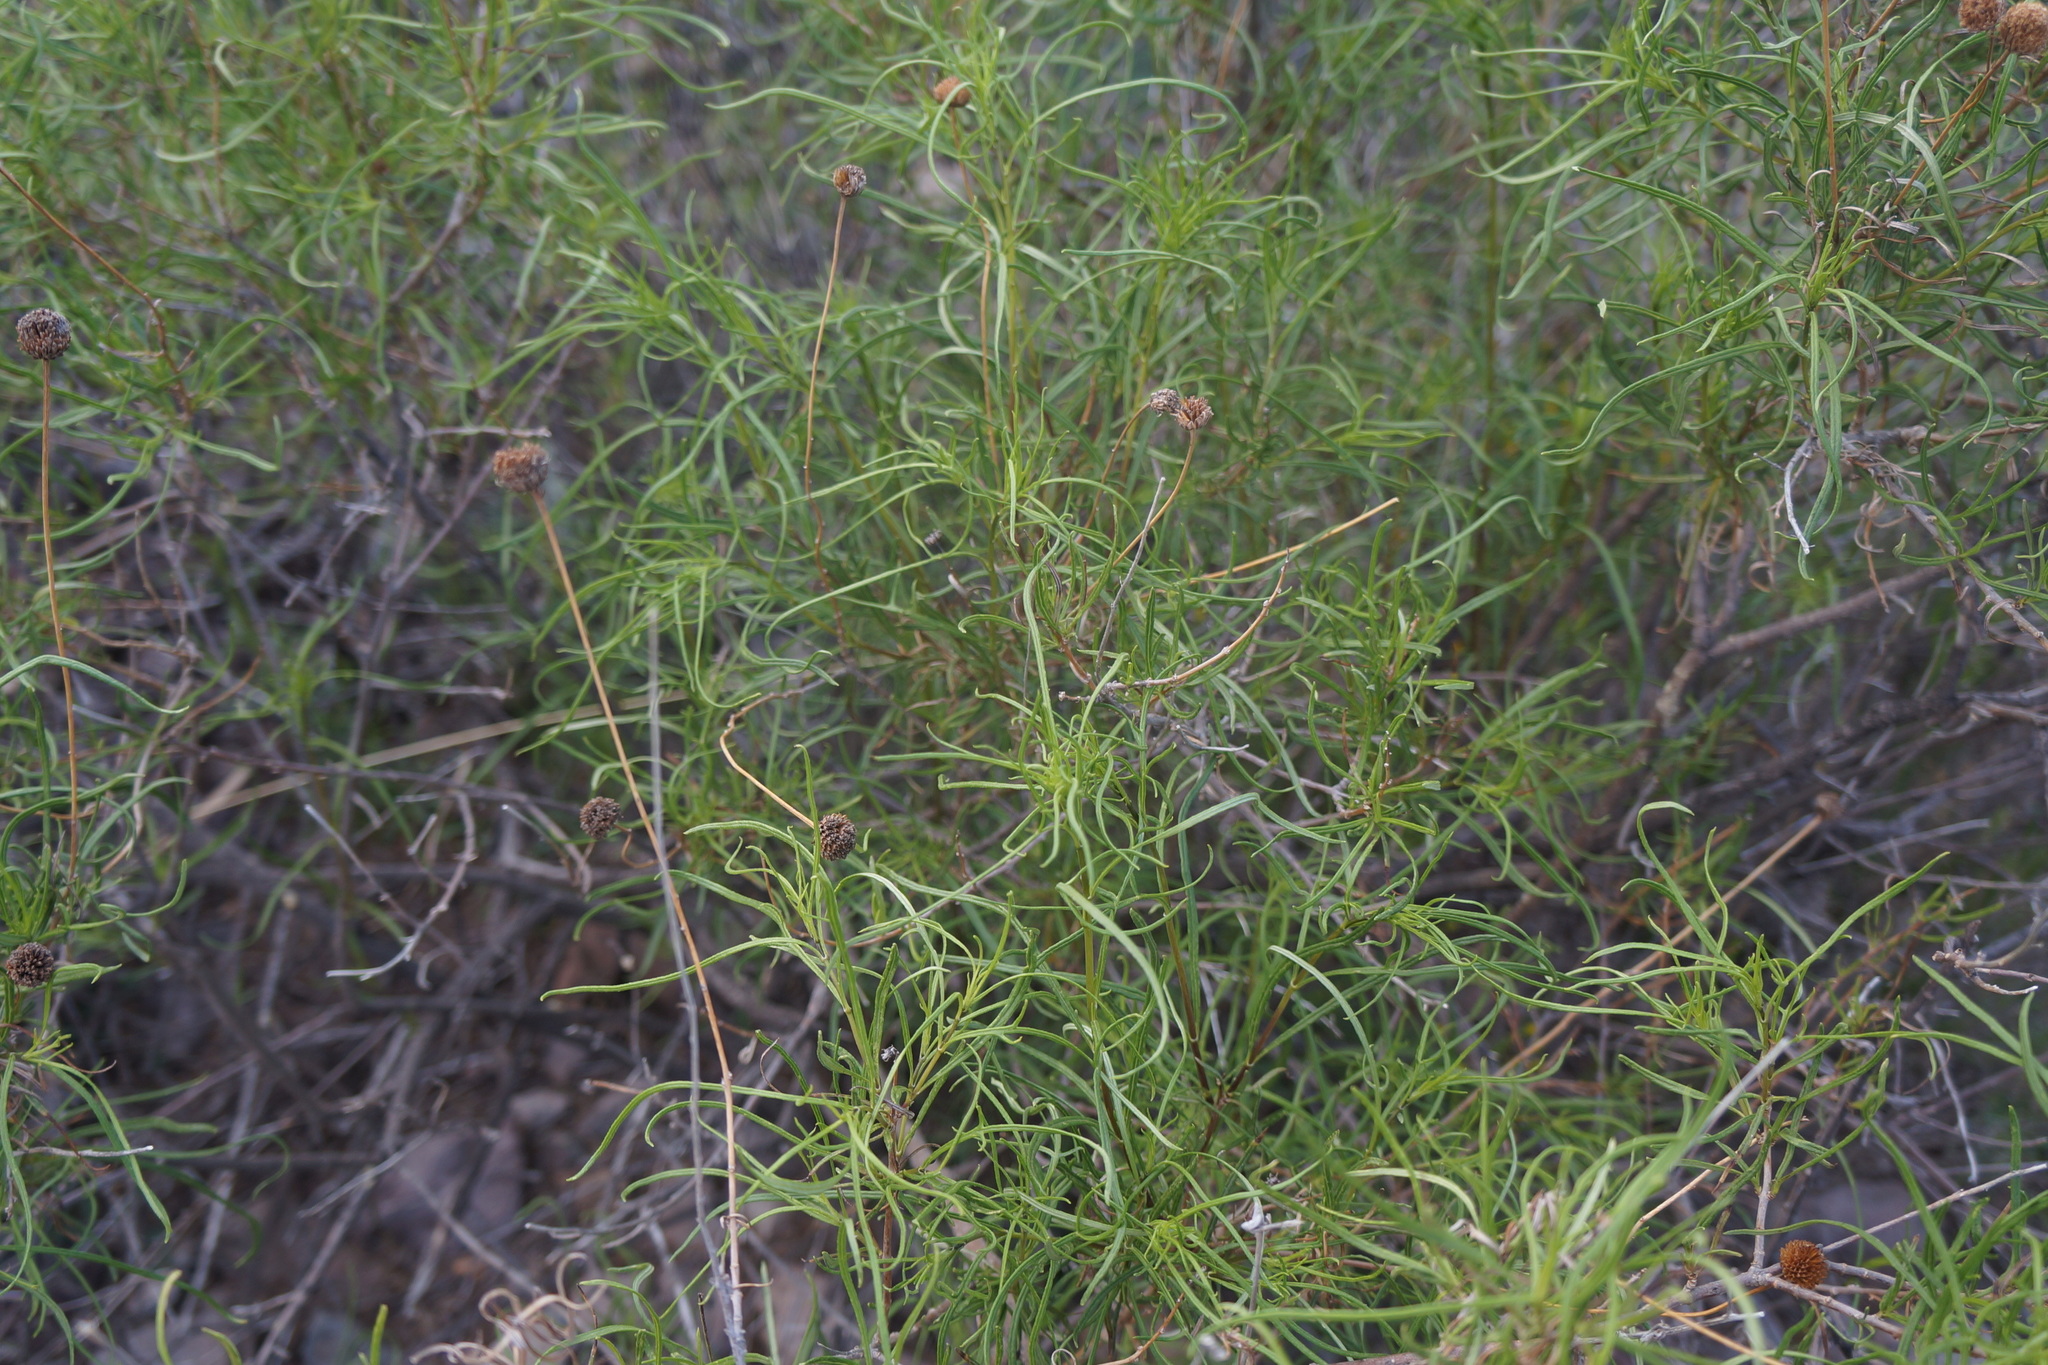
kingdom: Plantae
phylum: Tracheophyta
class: Magnoliopsida
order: Asterales
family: Asteraceae
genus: Sidneya
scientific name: Sidneya tenuifolia
